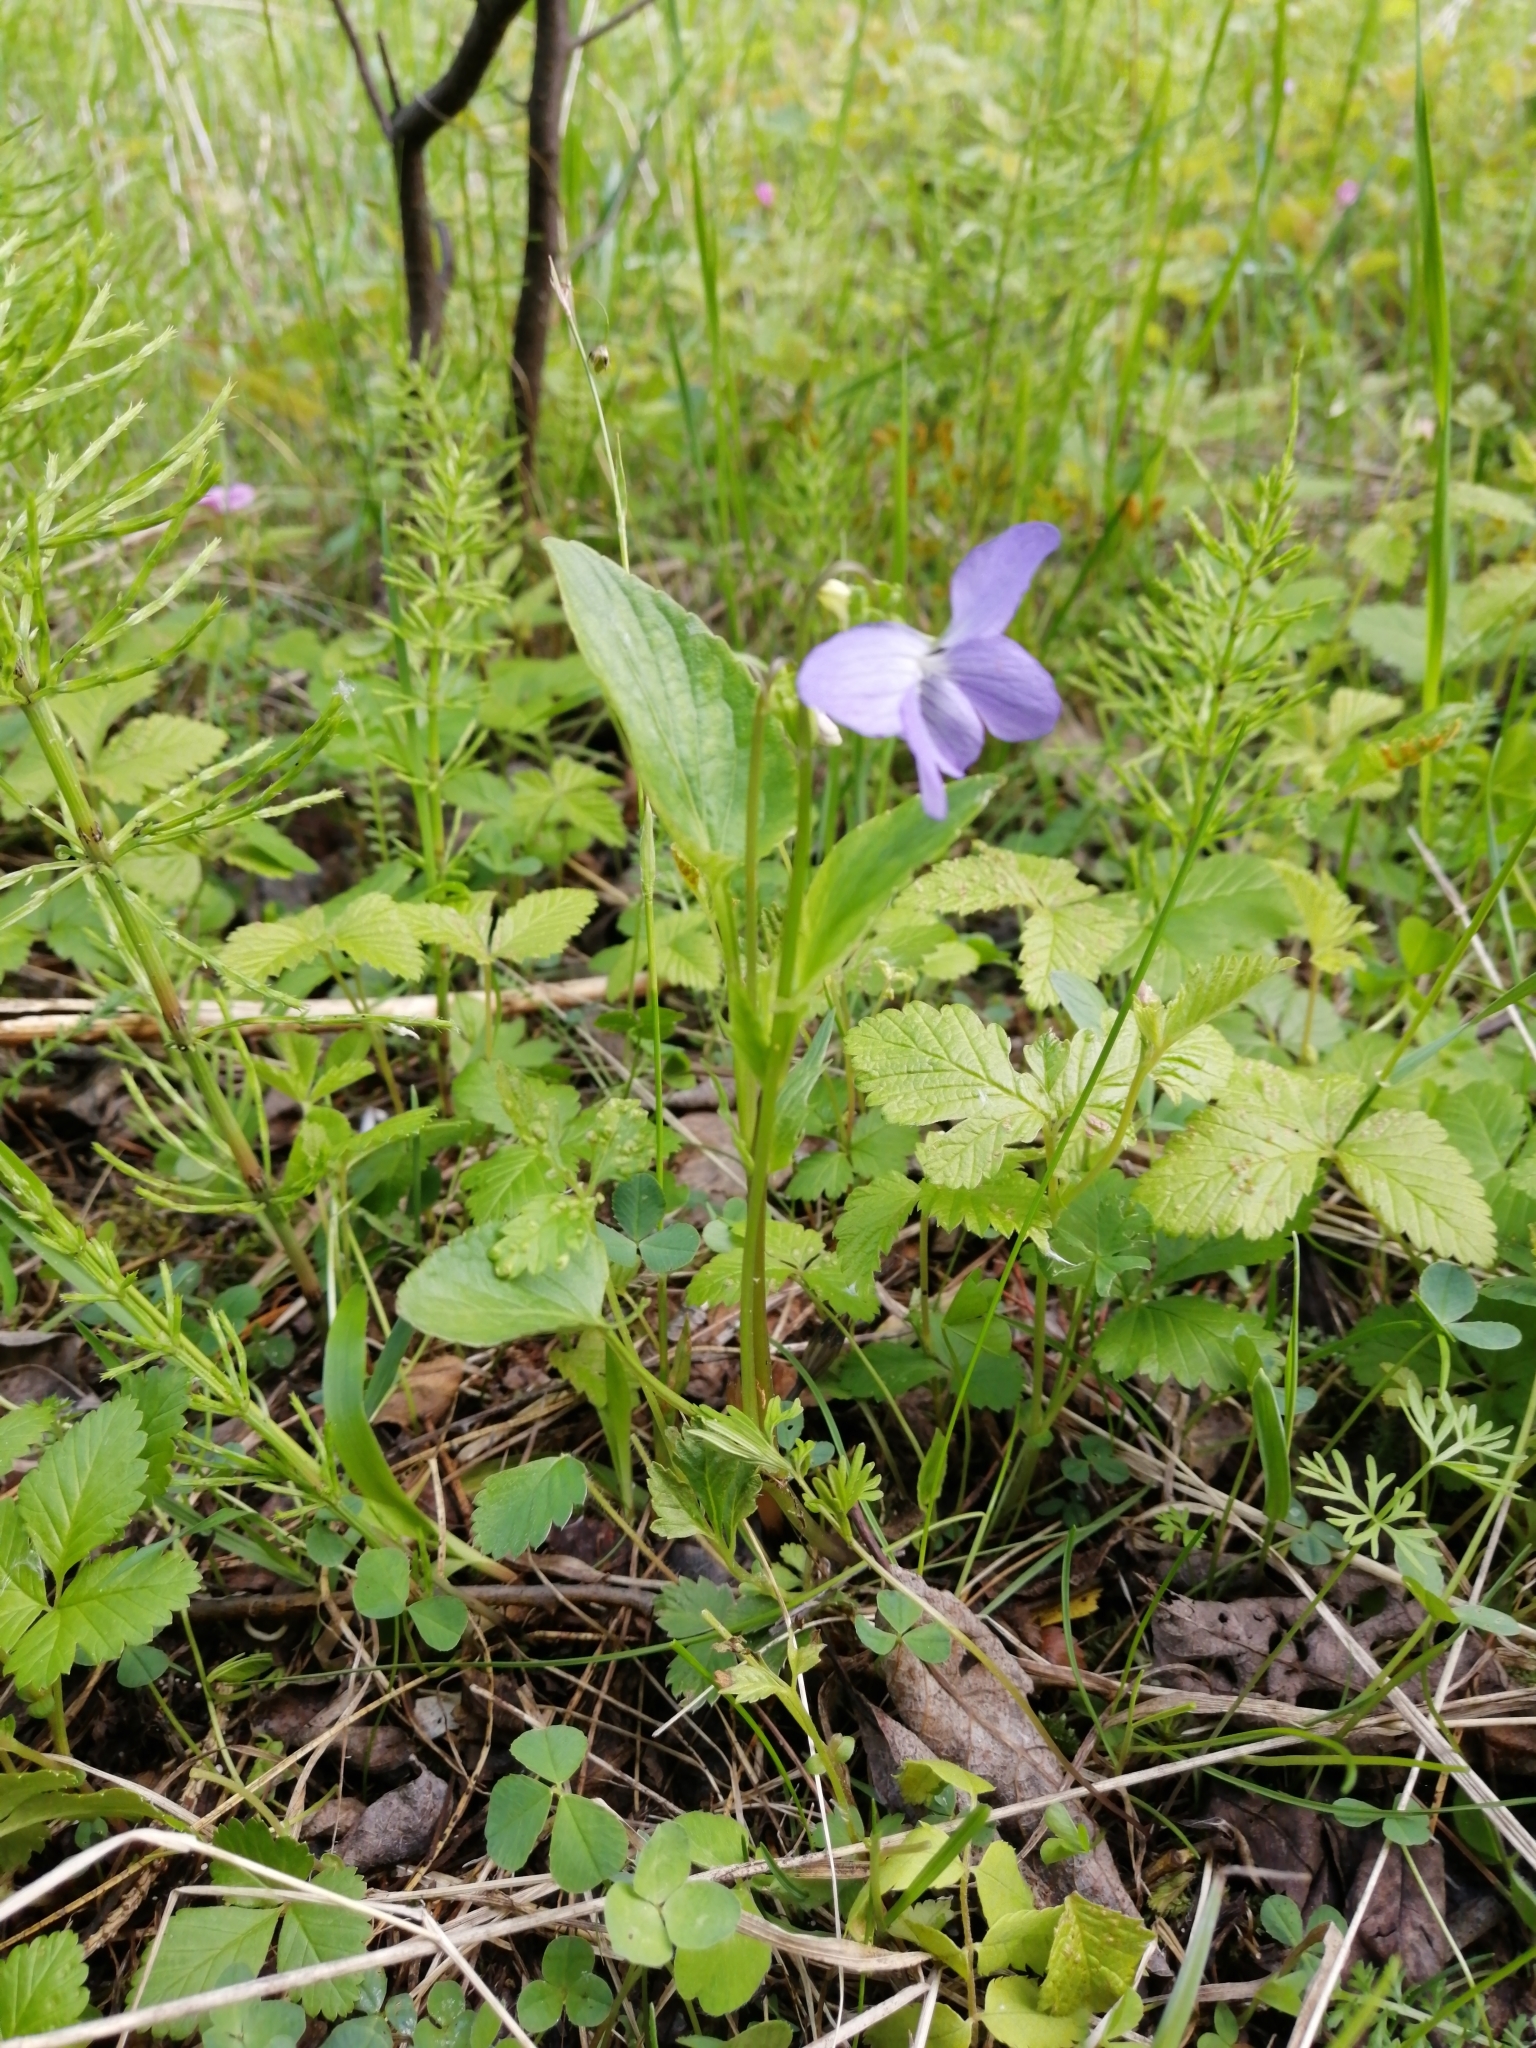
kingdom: Plantae
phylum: Tracheophyta
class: Magnoliopsida
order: Malpighiales
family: Violaceae
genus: Viola
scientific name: Viola
